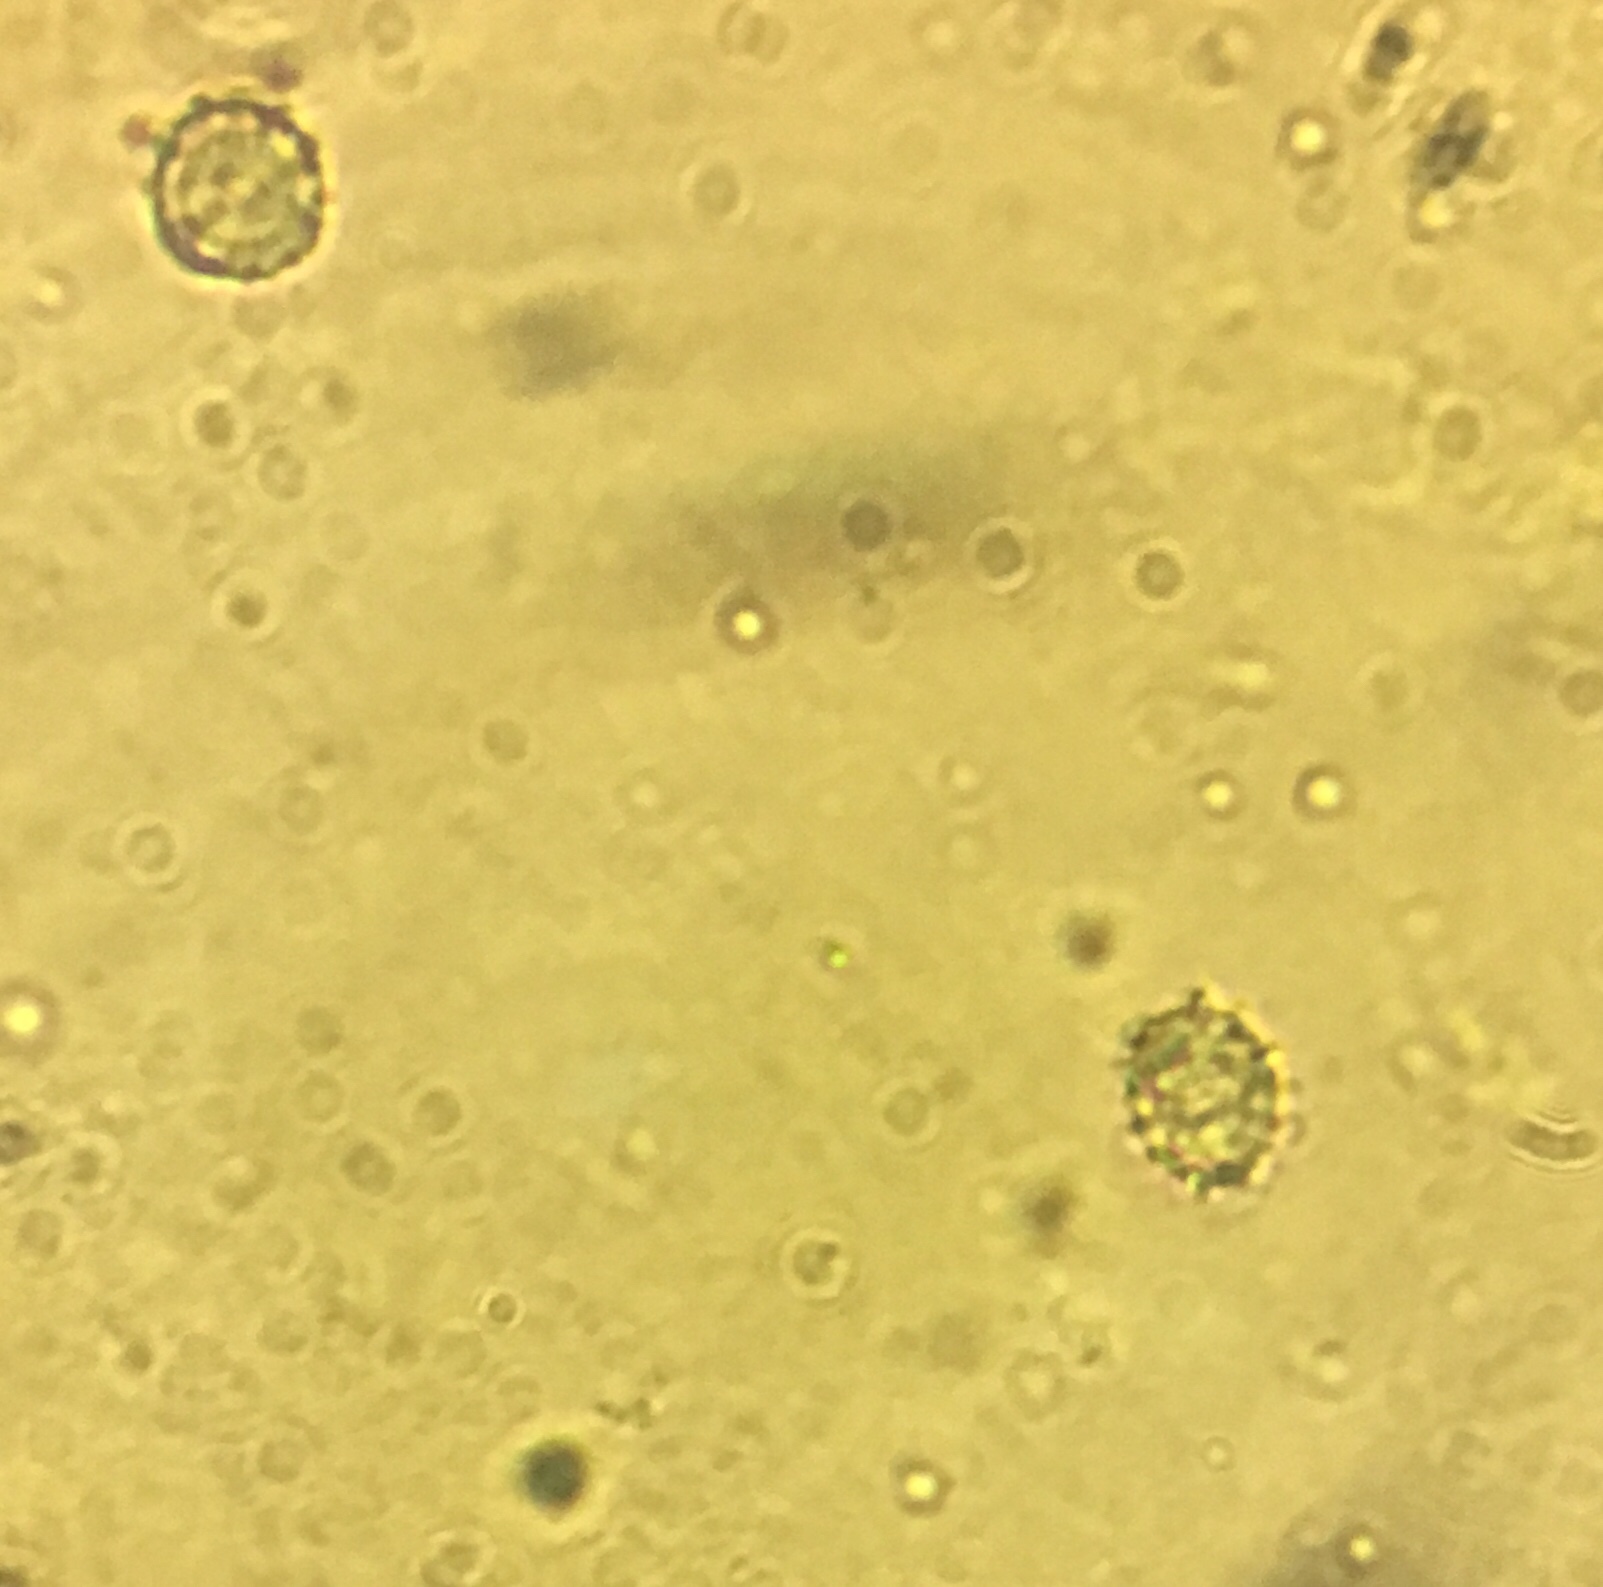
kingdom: Fungi
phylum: Basidiomycota
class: Agaricomycetes
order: Russulales
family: Russulaceae
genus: Russula
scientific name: Russula rubescens
